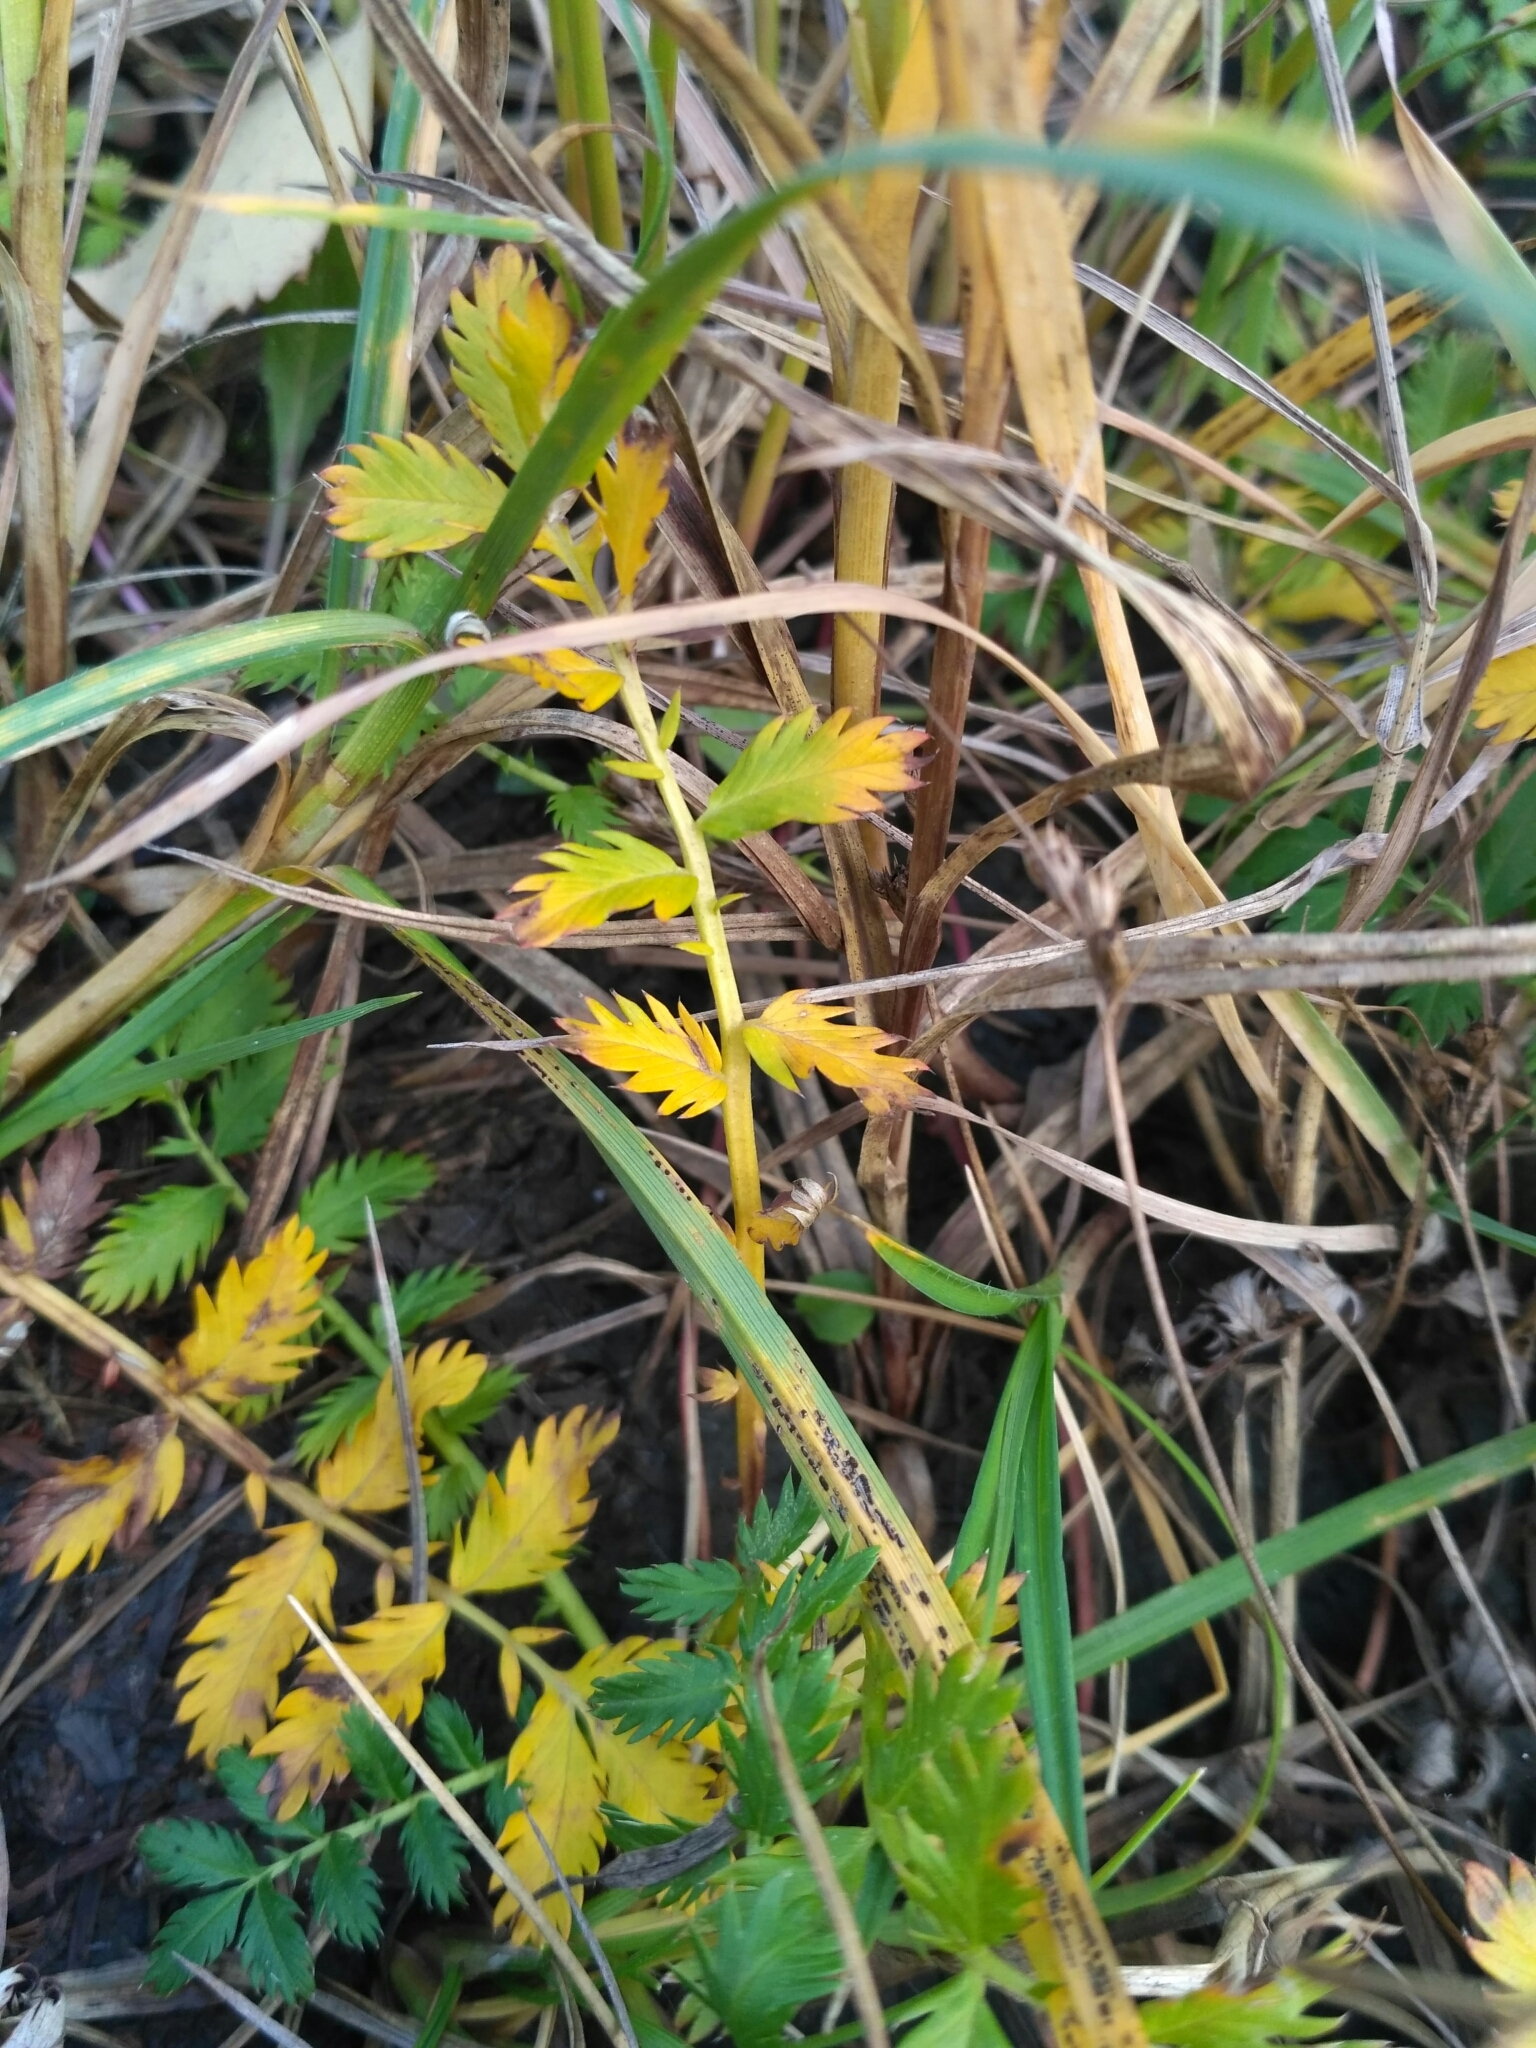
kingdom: Plantae
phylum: Tracheophyta
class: Magnoliopsida
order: Rosales
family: Rosaceae
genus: Argentina
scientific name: Argentina anserina
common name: Common silverweed
